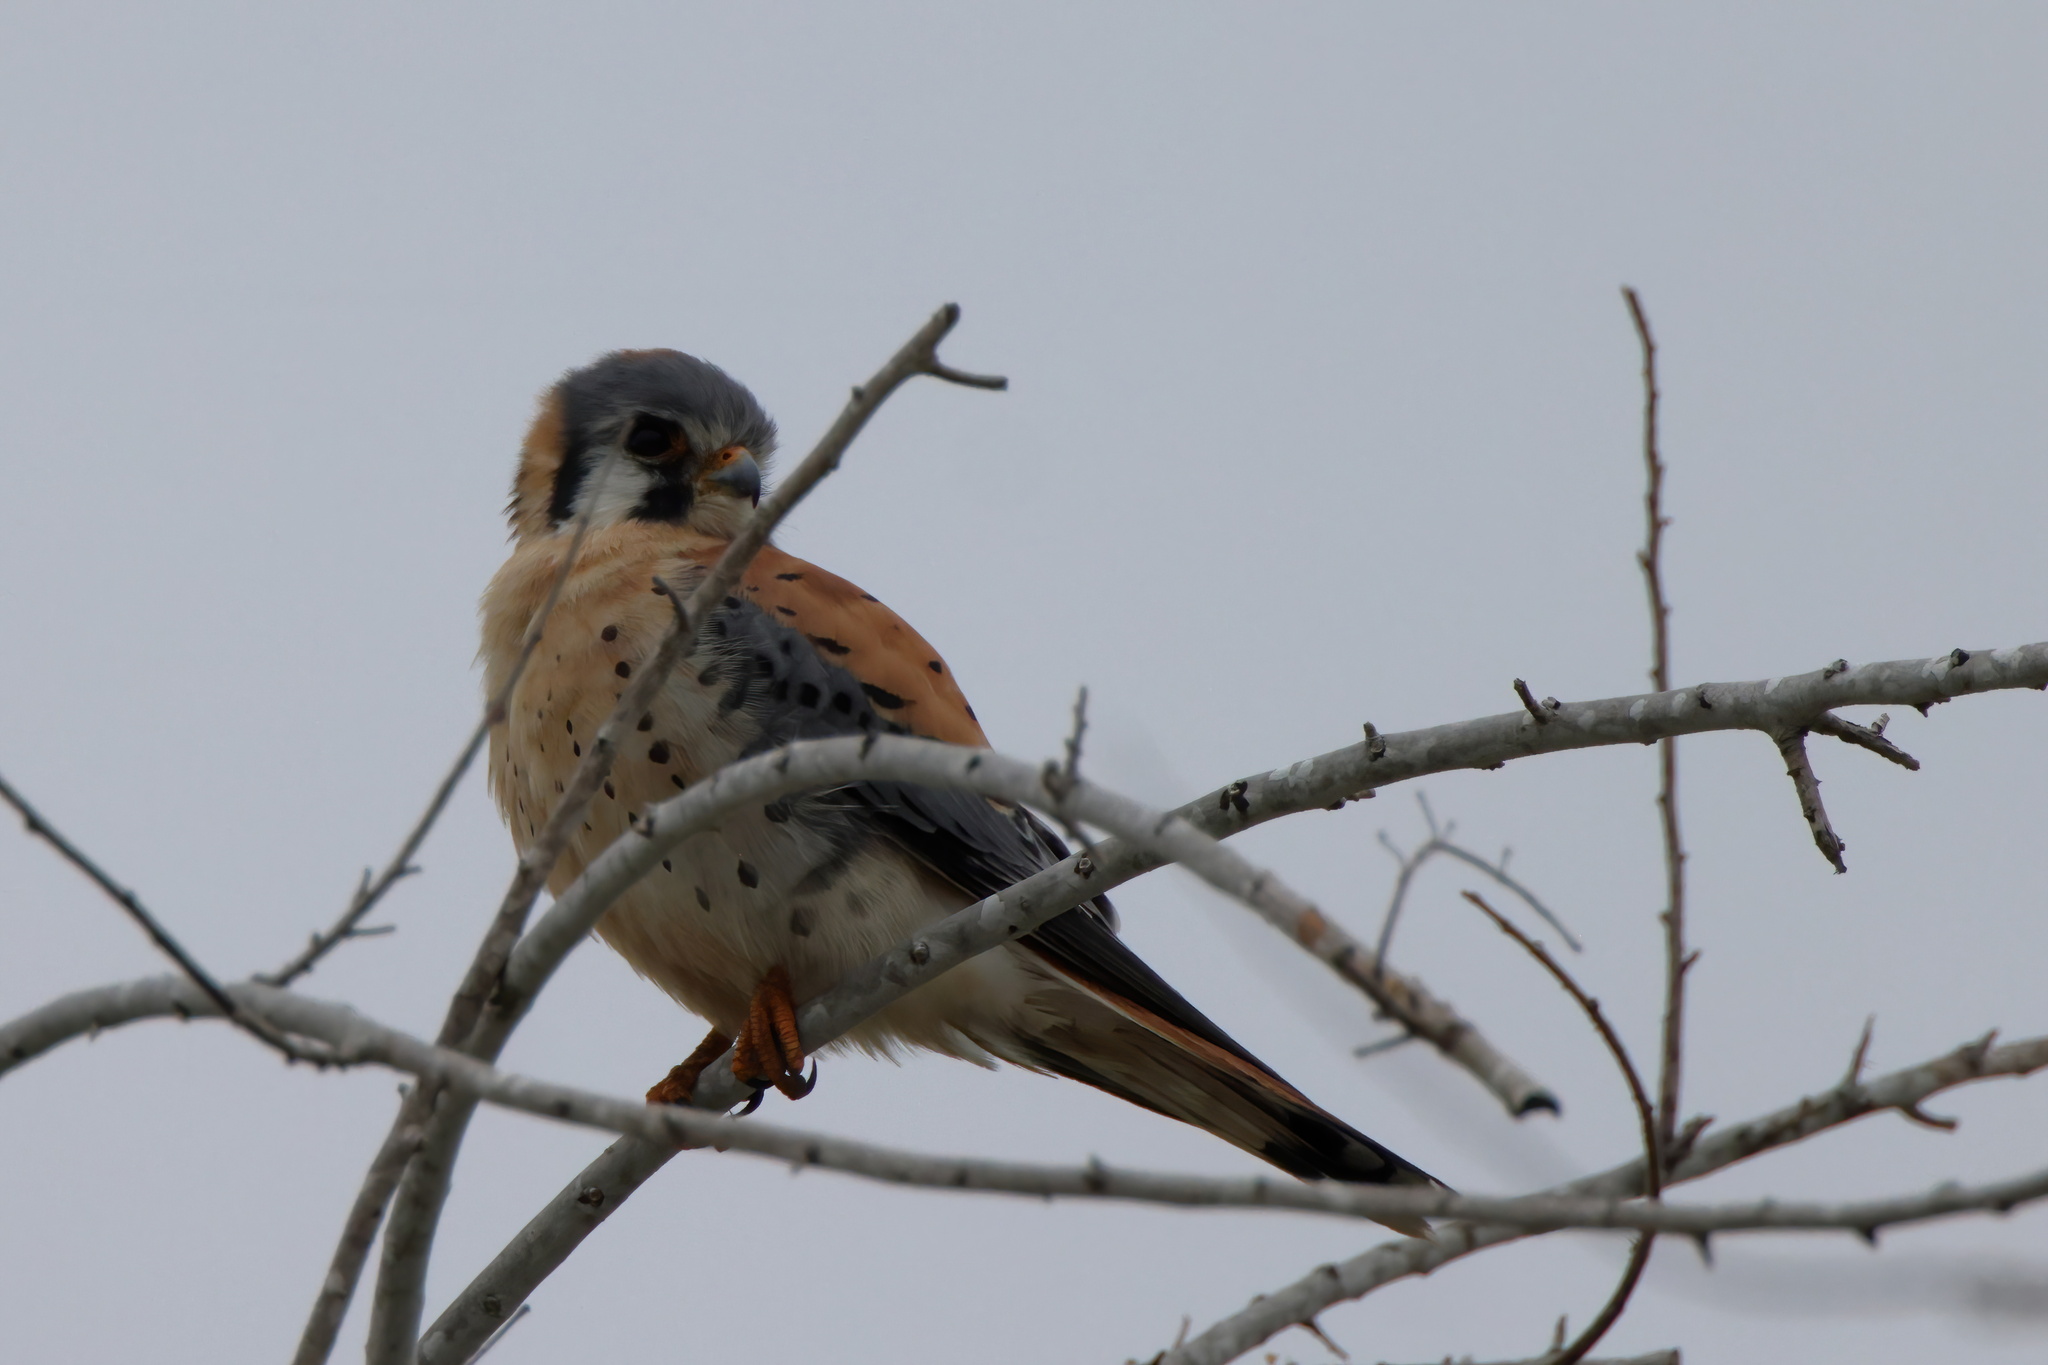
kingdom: Animalia
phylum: Chordata
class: Aves
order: Falconiformes
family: Falconidae
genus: Falco
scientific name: Falco sparverius
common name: American kestrel
